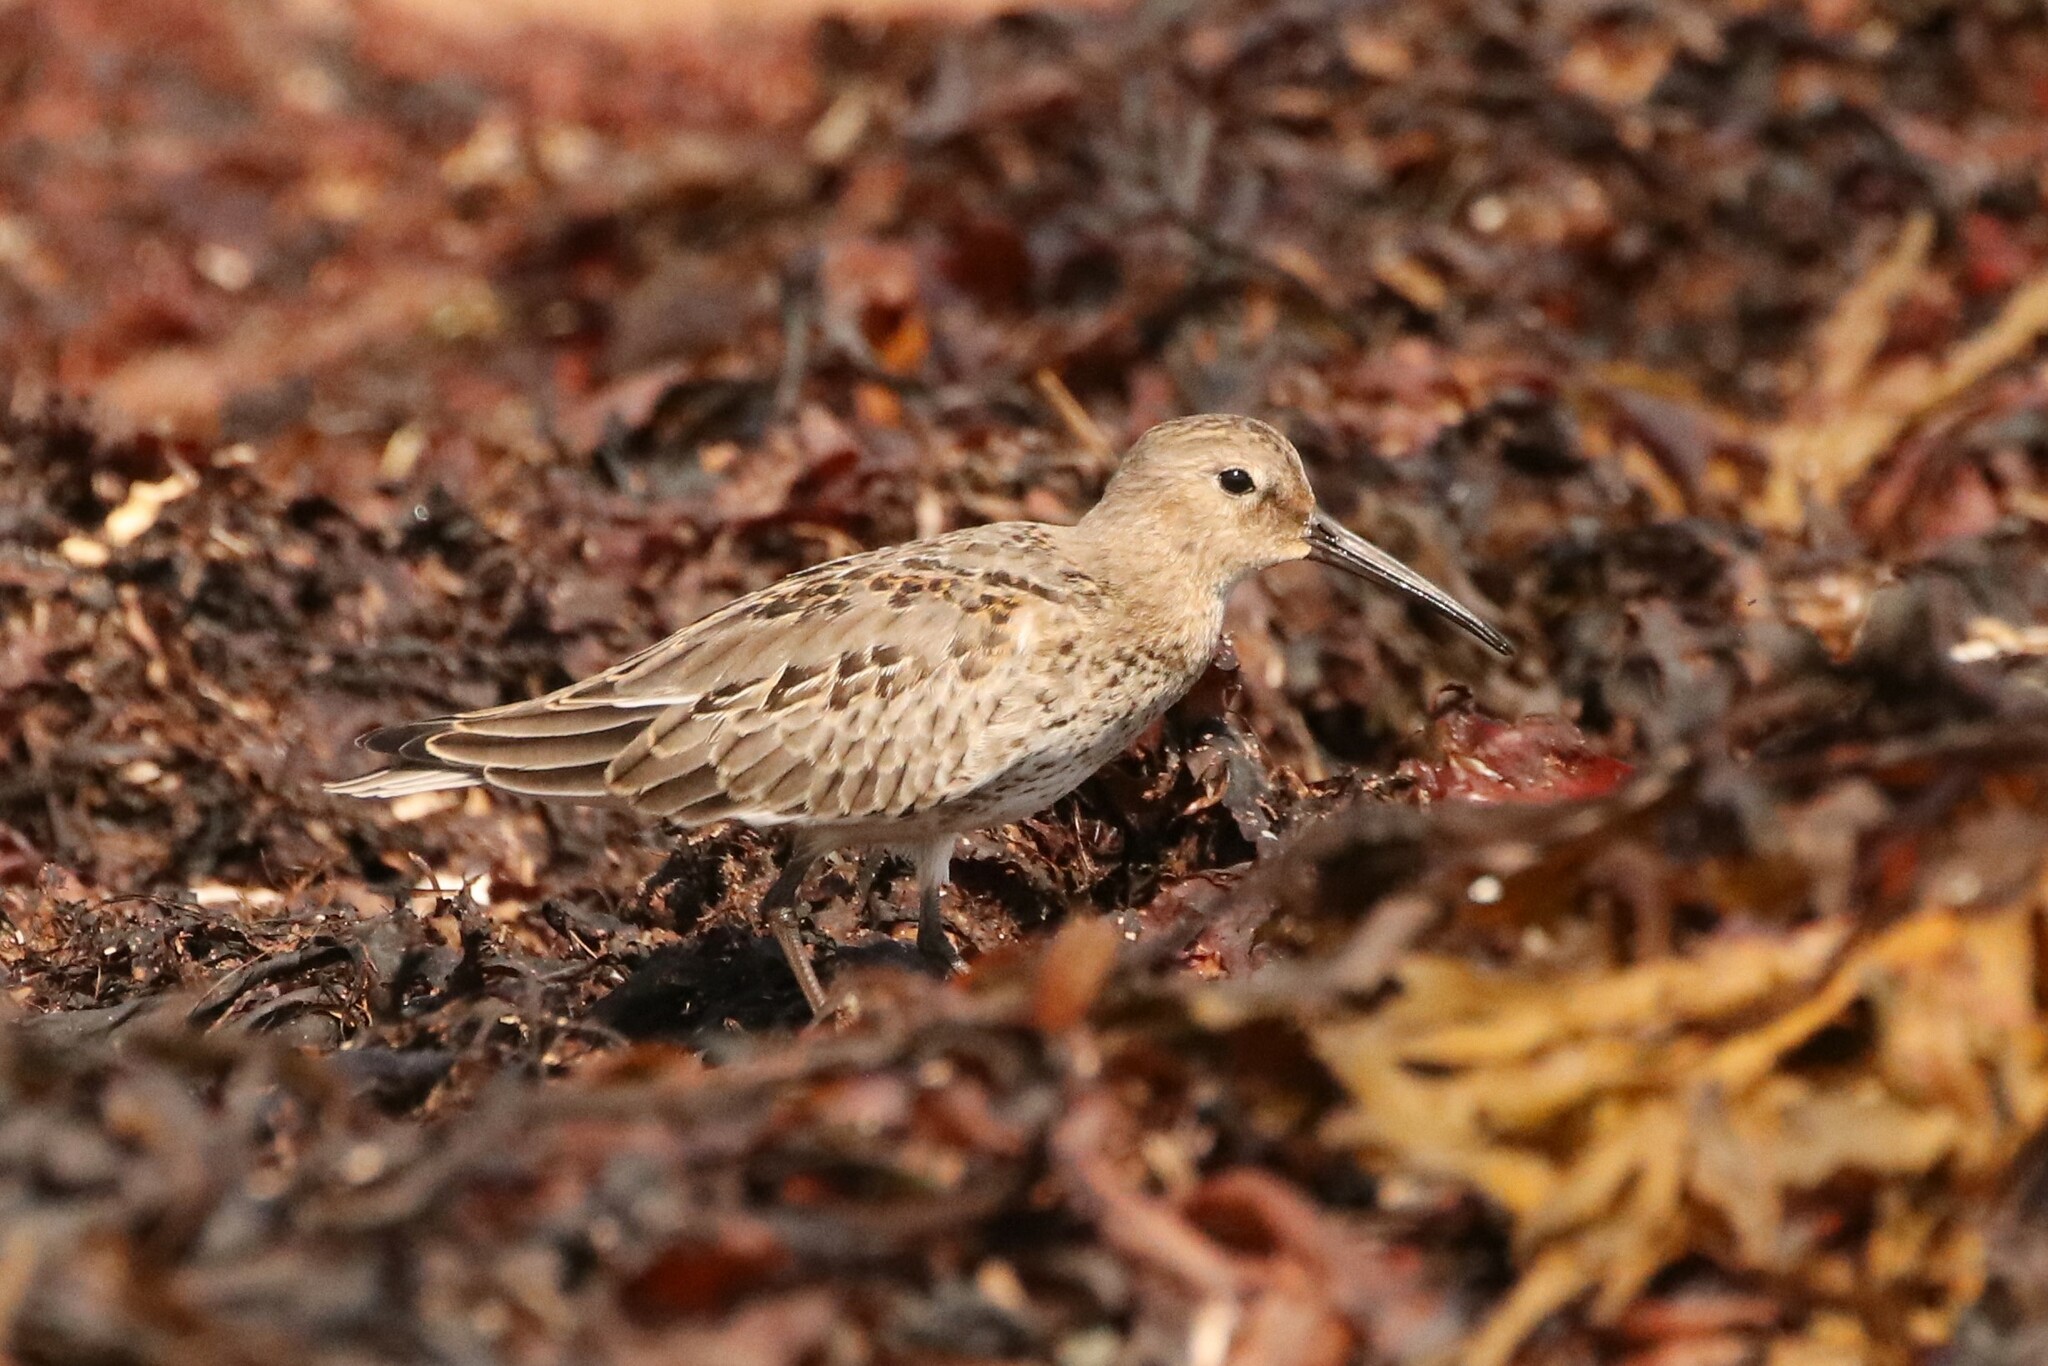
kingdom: Animalia
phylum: Chordata
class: Aves
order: Charadriiformes
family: Scolopacidae
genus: Calidris
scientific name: Calidris alpina
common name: Dunlin
